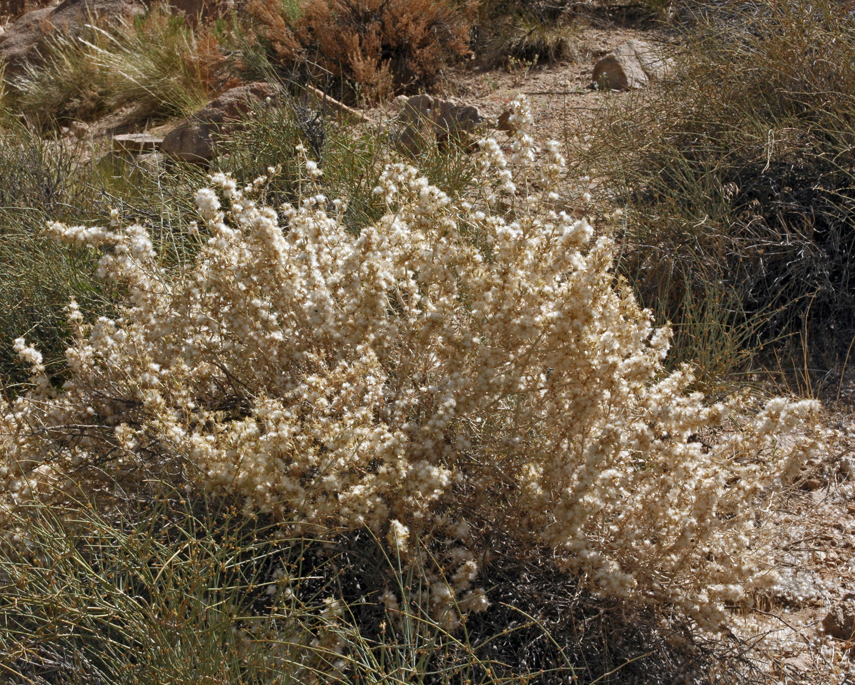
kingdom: Plantae
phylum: Tracheophyta
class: Magnoliopsida
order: Asterales
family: Asteraceae
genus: Tetradymia
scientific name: Tetradymia axillaris
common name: Long-spine horsebrush
